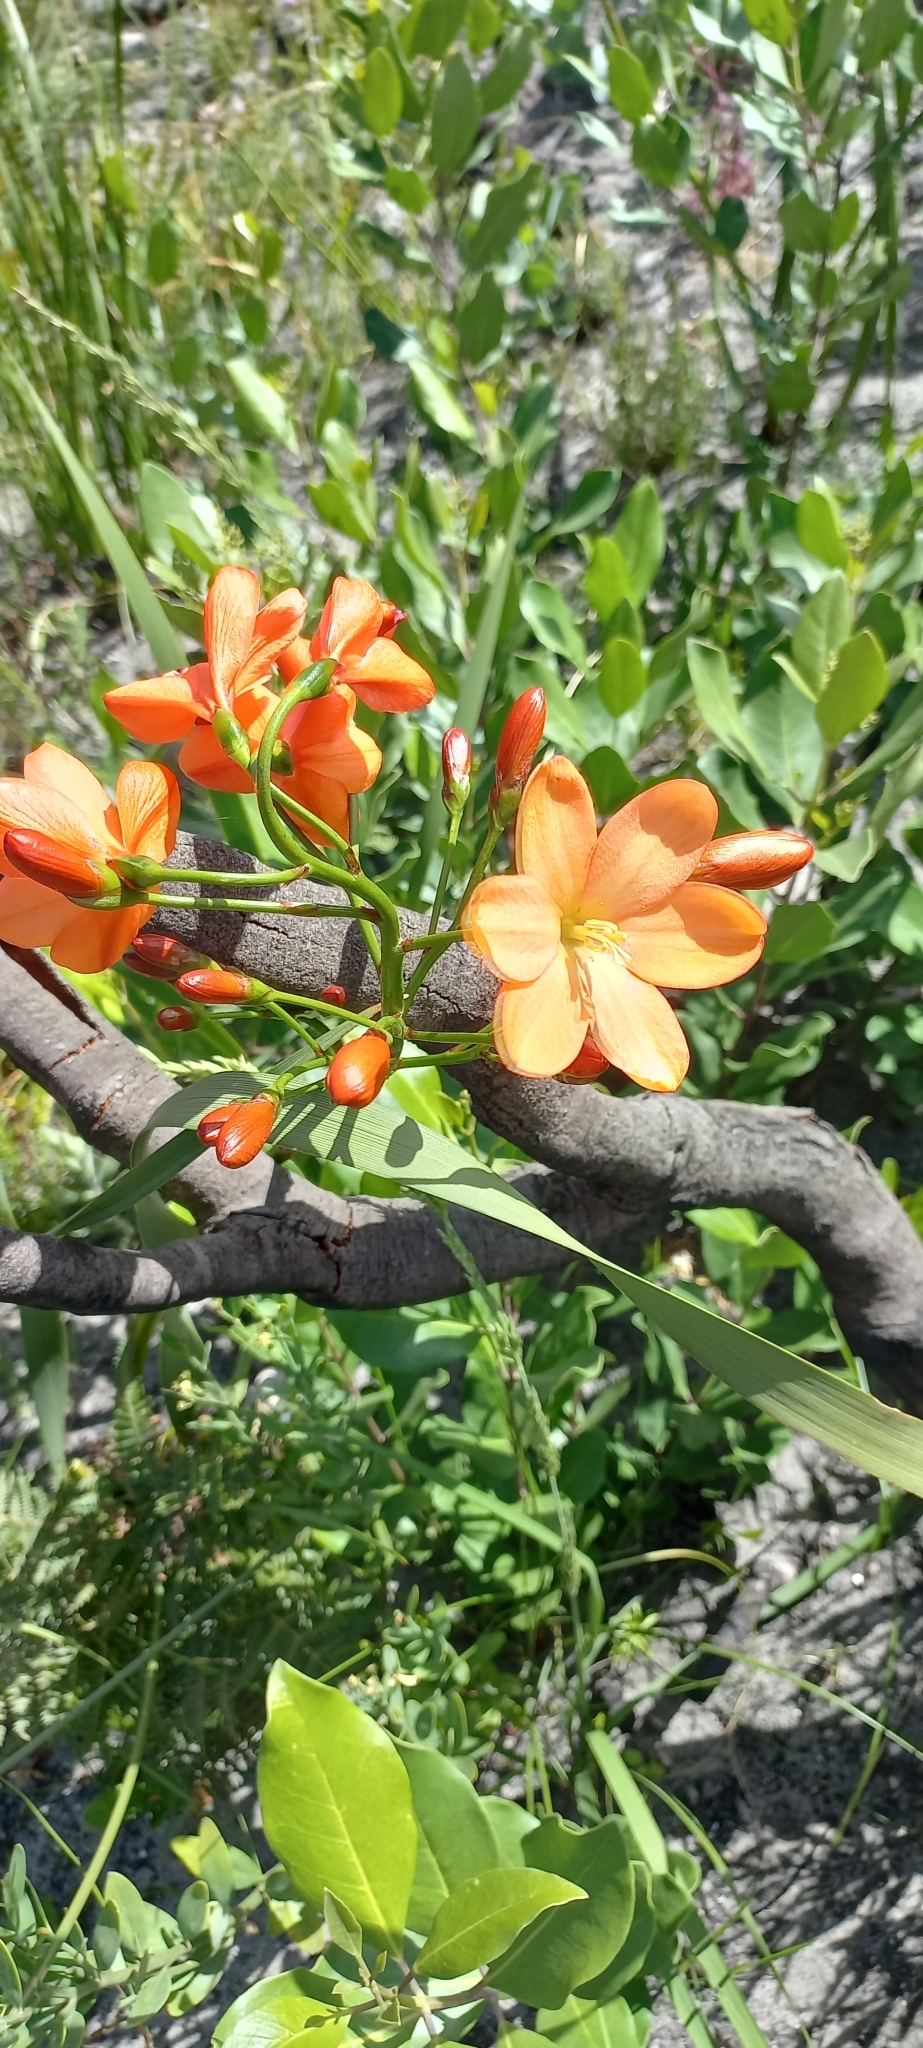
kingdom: Plantae
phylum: Tracheophyta
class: Liliopsida
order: Asparagales
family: Iridaceae
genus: Pillansia
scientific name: Pillansia templemannii
